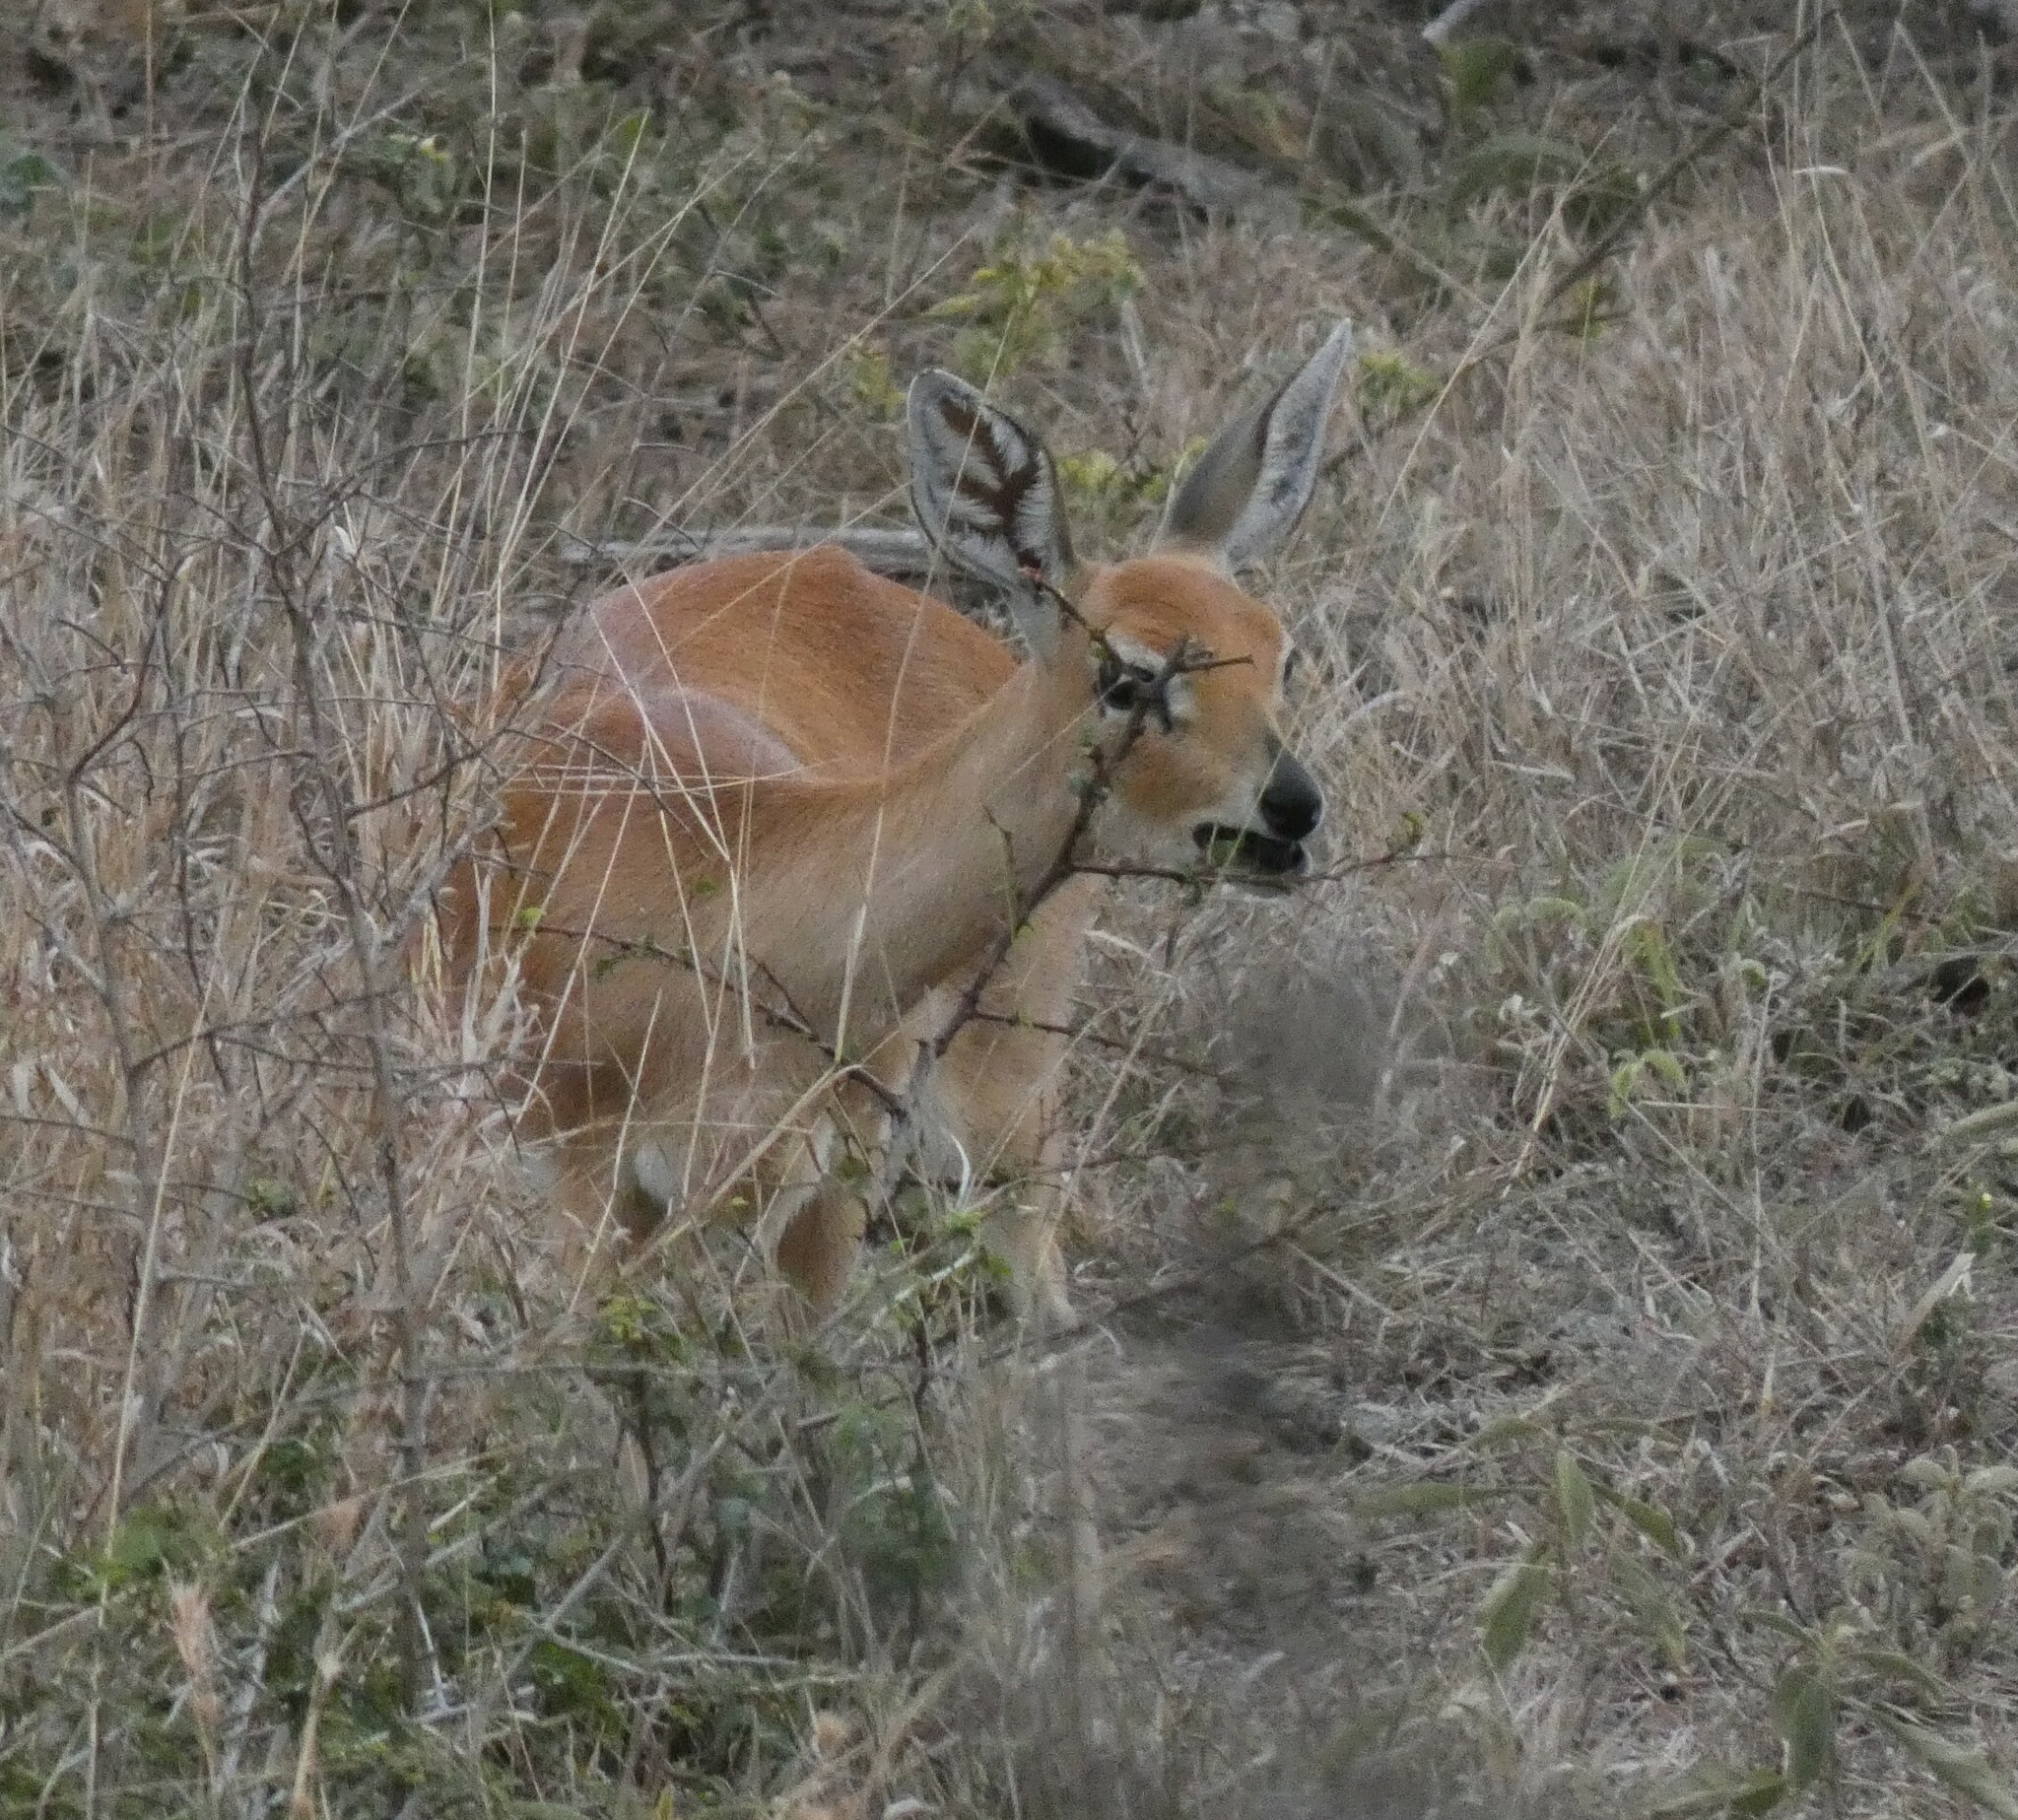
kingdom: Animalia
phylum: Chordata
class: Mammalia
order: Artiodactyla
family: Bovidae
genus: Raphicerus
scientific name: Raphicerus campestris
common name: Steenbok
